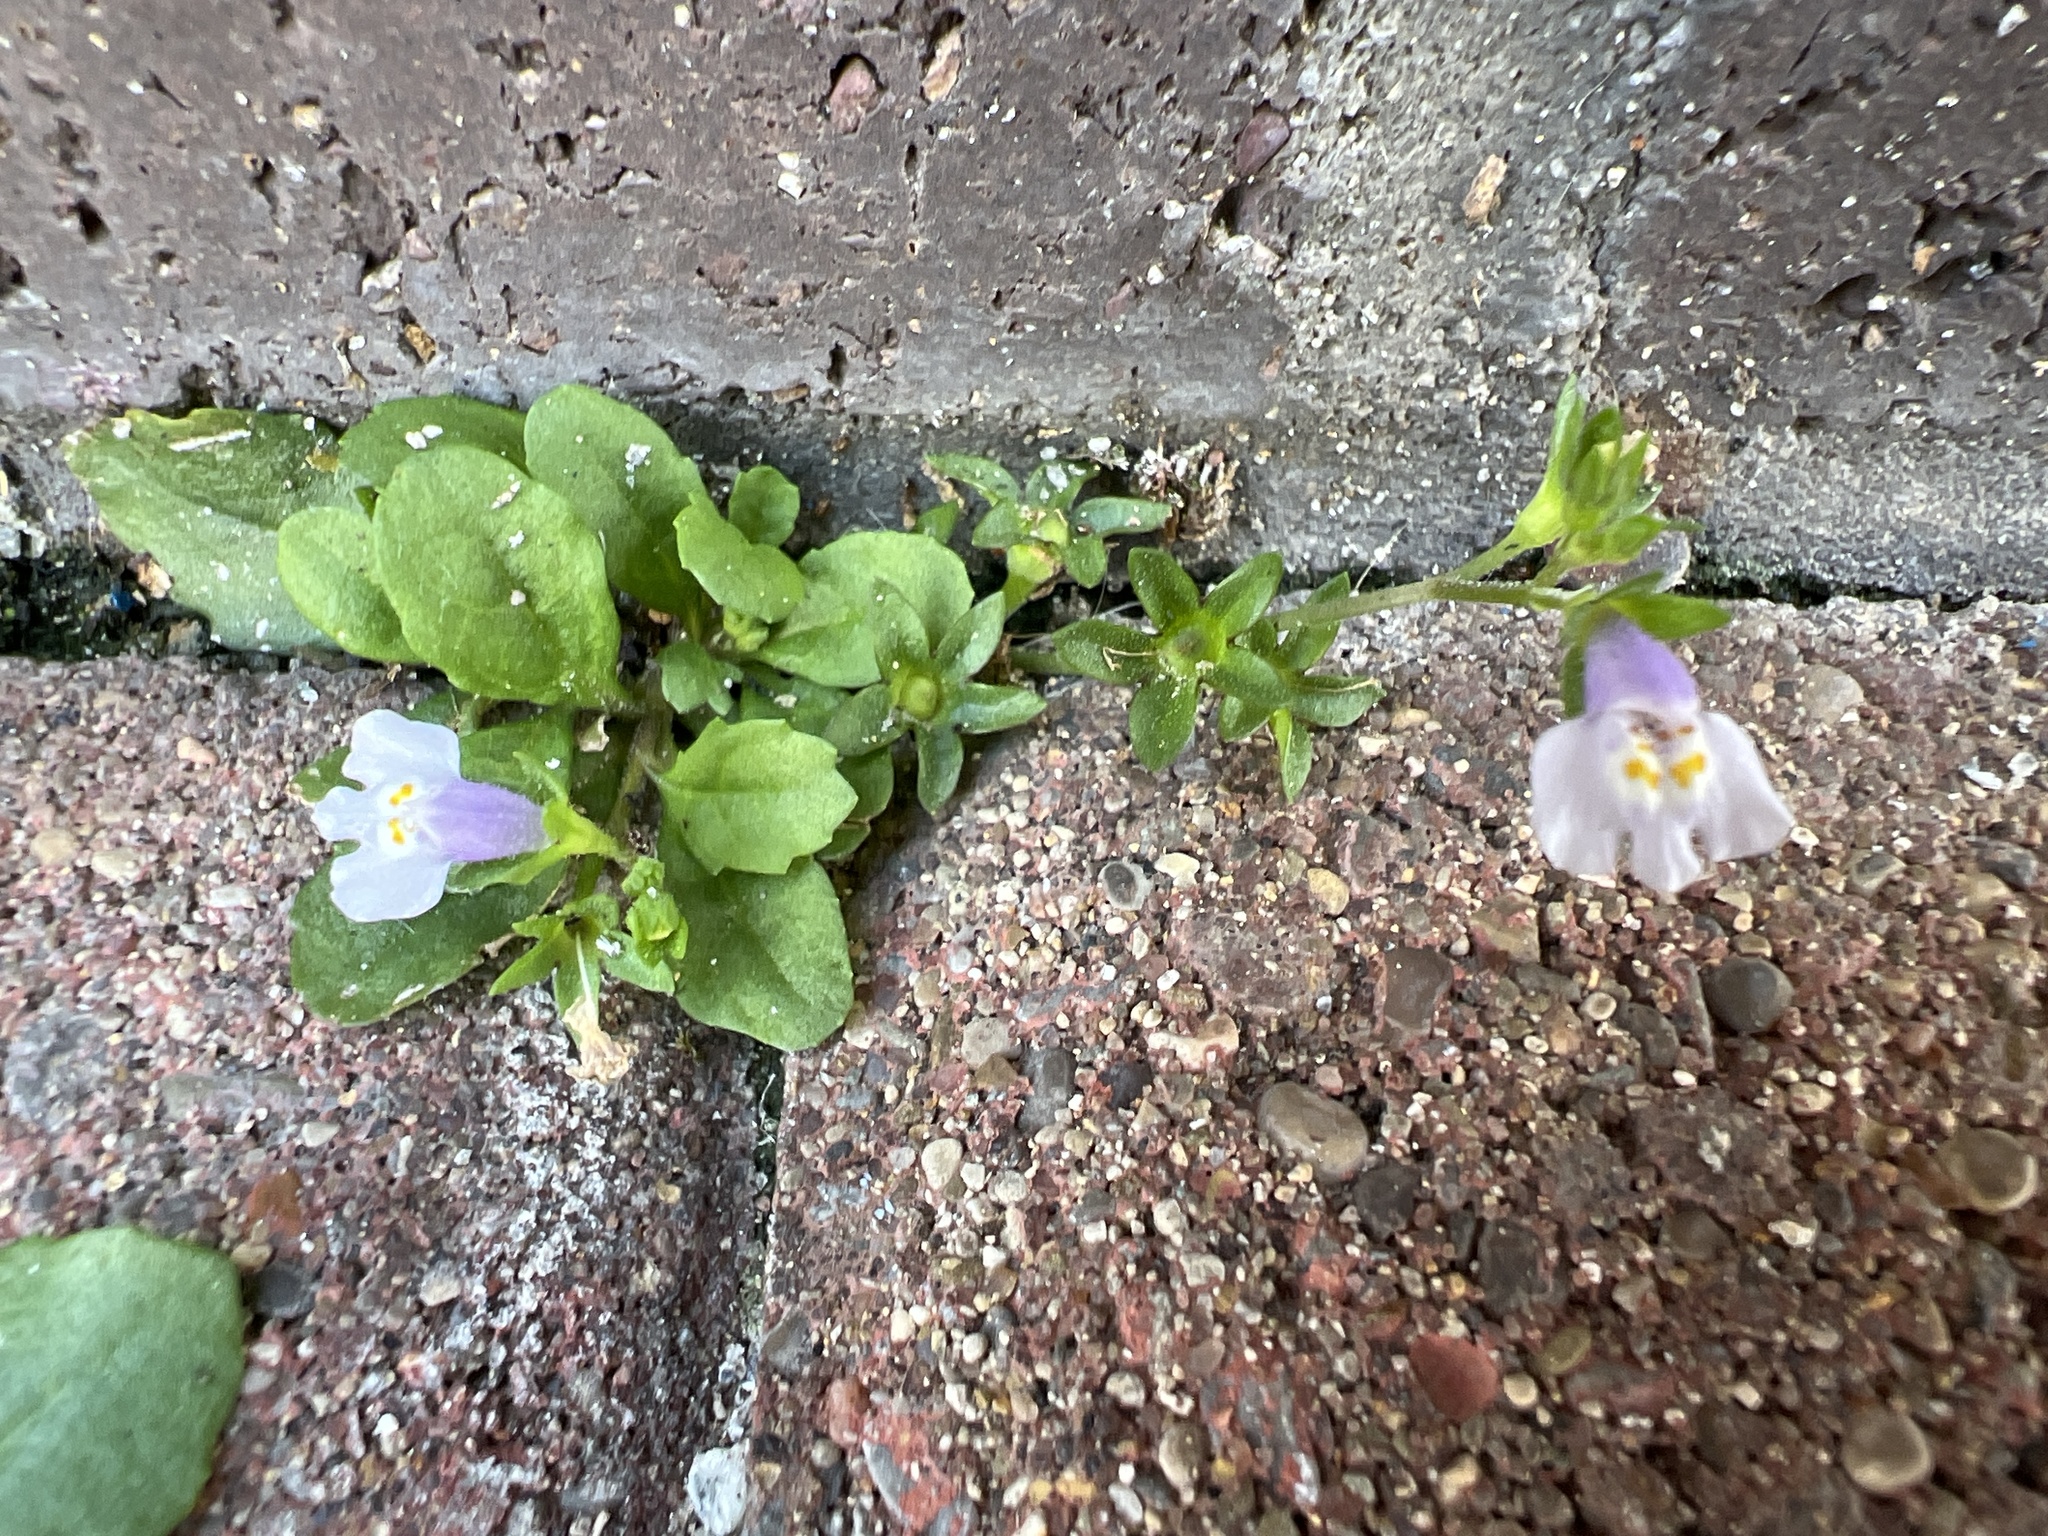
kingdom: Plantae
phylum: Tracheophyta
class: Magnoliopsida
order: Lamiales
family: Mazaceae
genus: Mazus
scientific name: Mazus pumilus
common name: Japanese mazus
